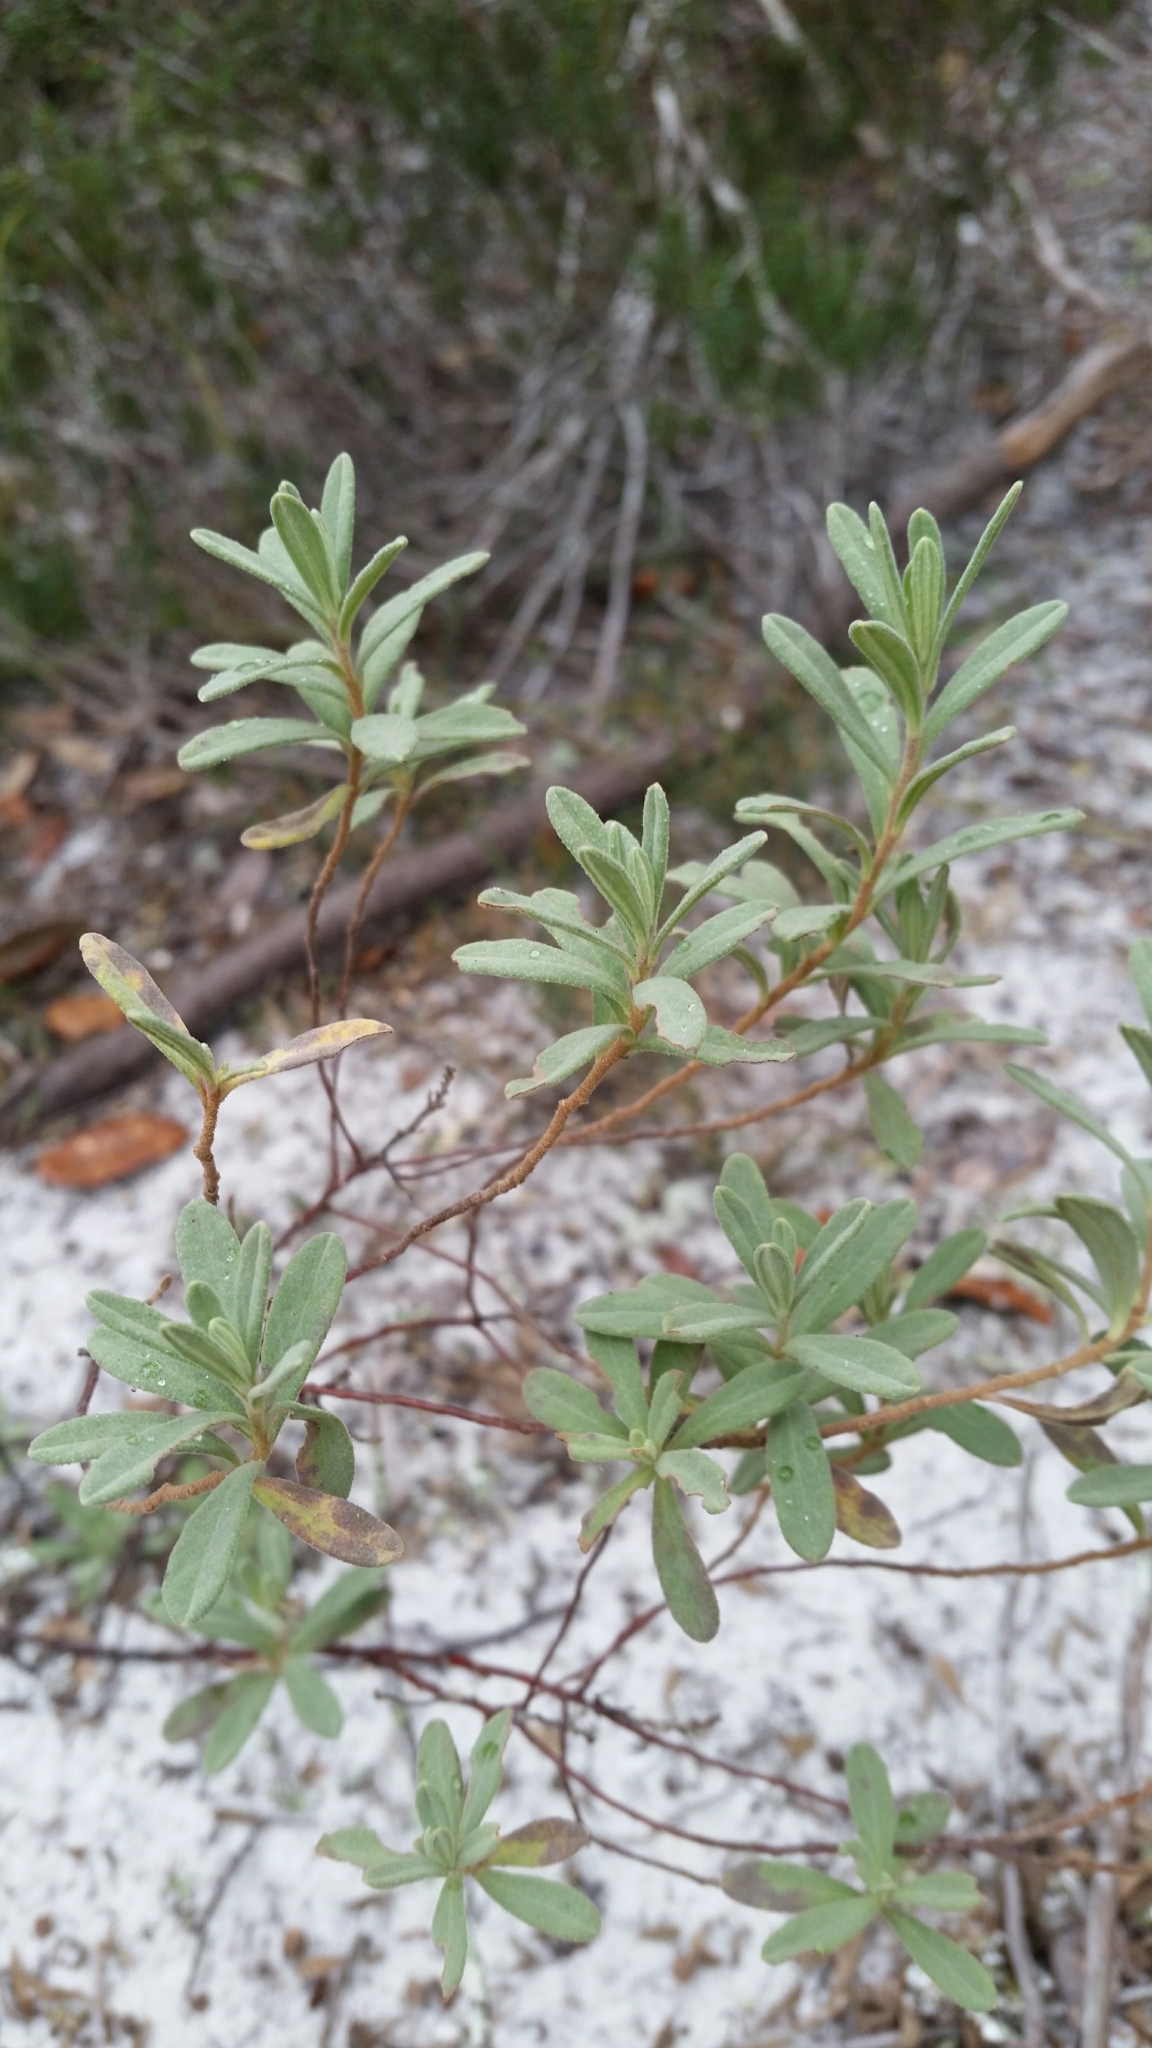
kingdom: Plantae
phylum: Tracheophyta
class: Magnoliopsida
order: Malvales
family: Cistaceae
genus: Crocanthemum
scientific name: Crocanthemum nashii
